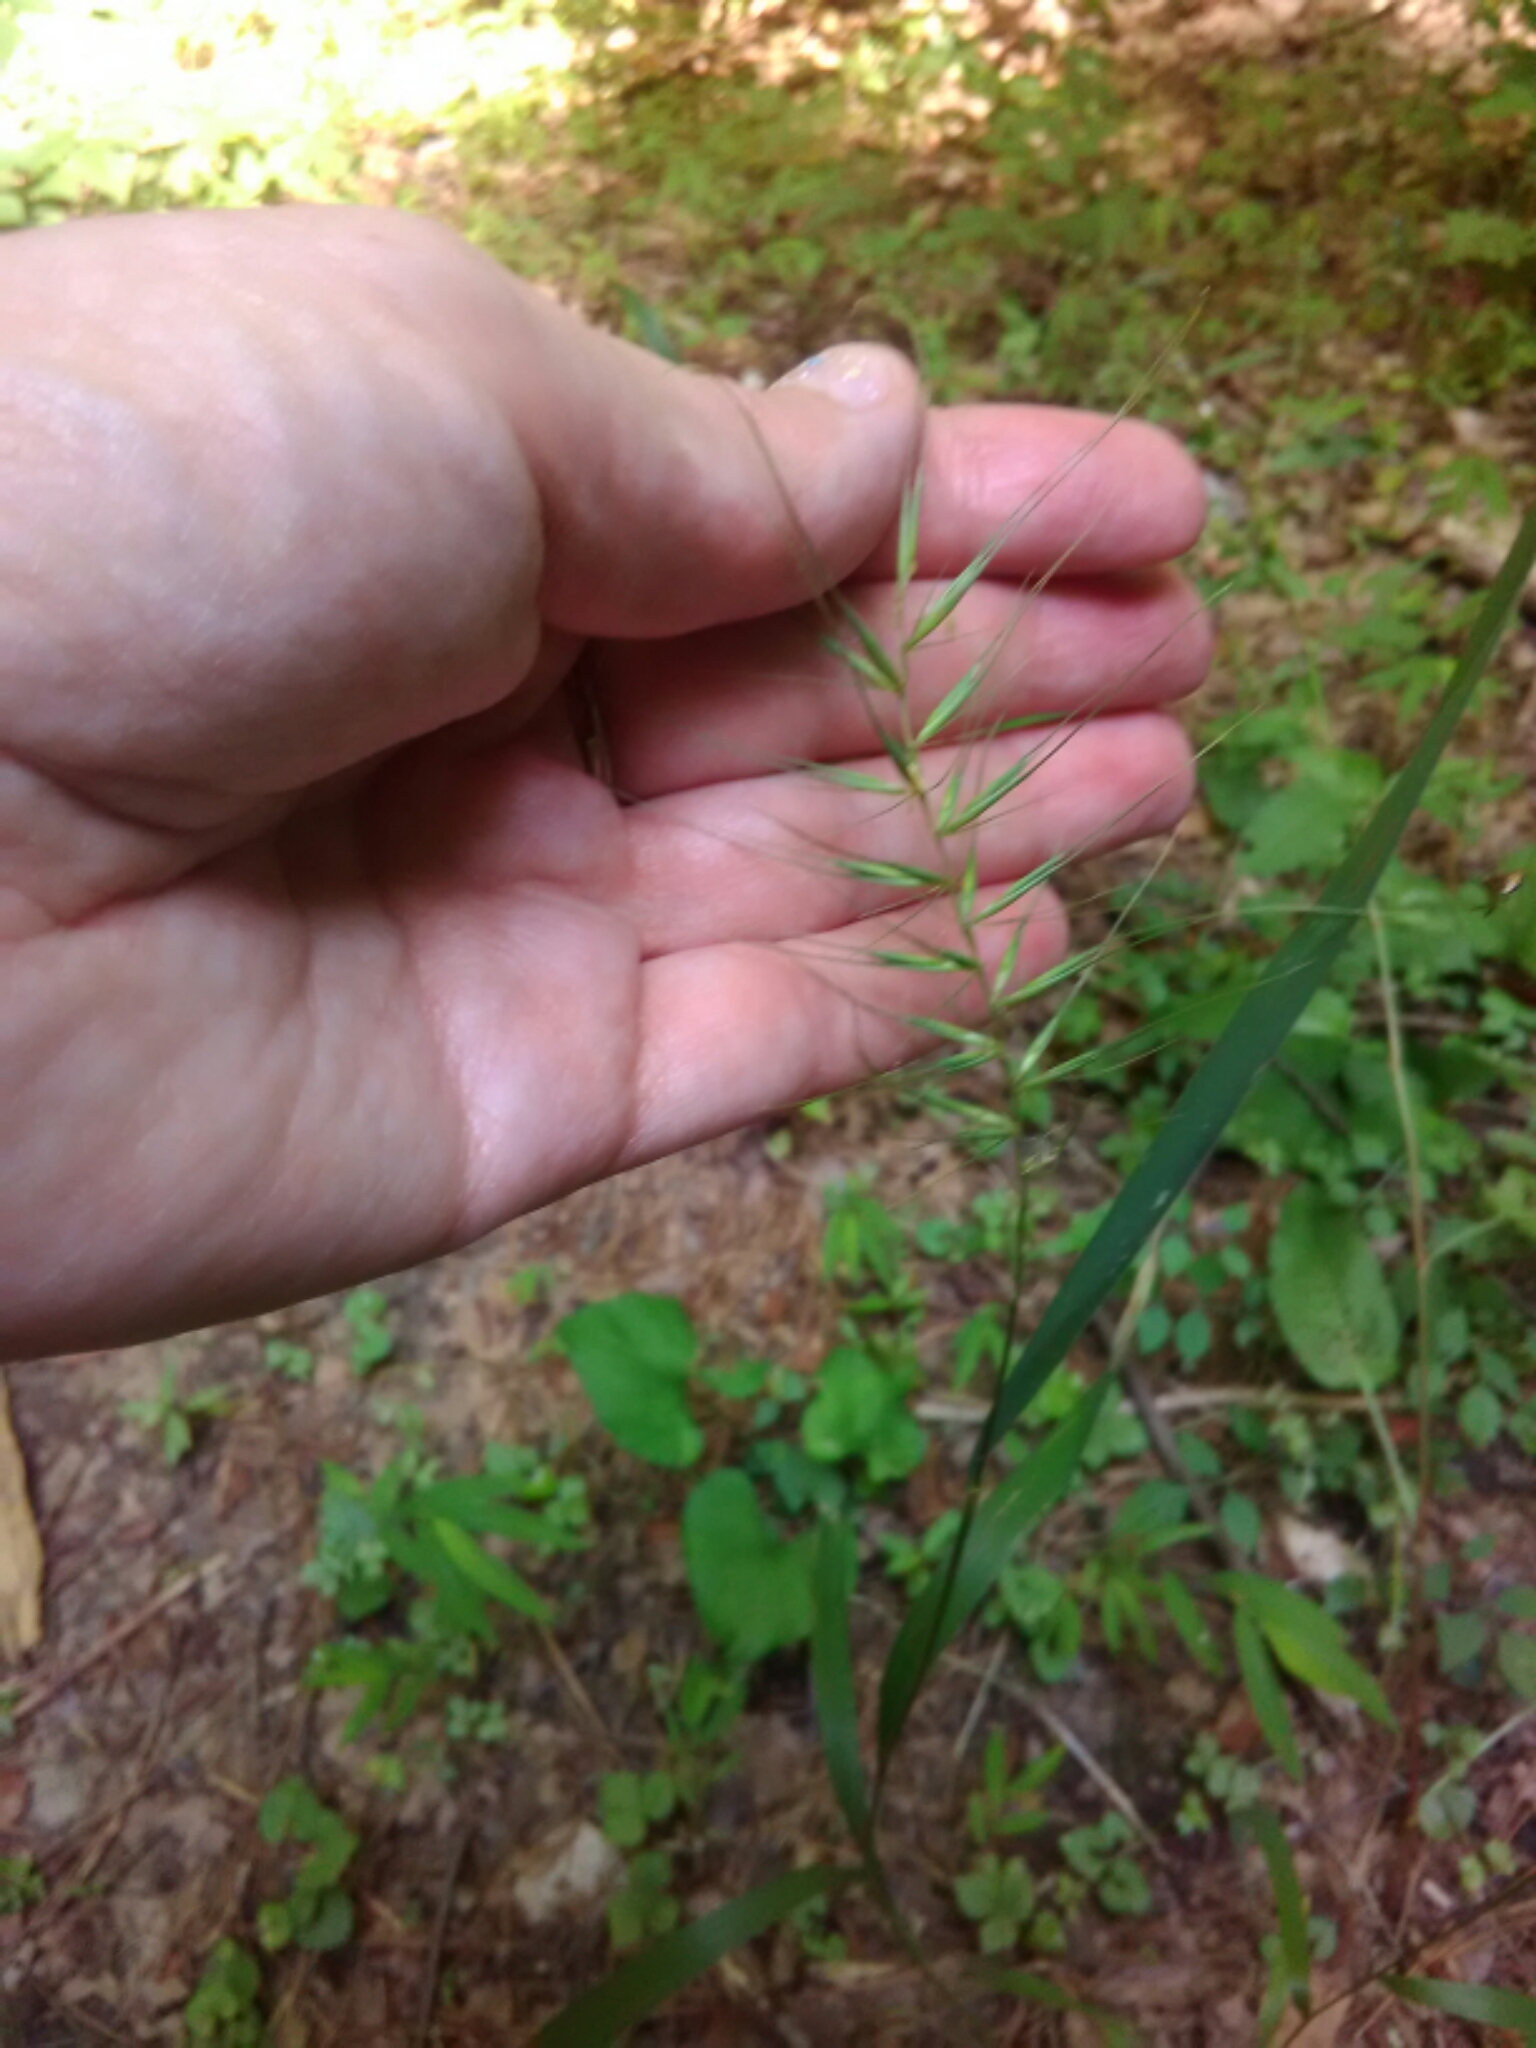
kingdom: Plantae
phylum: Tracheophyta
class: Liliopsida
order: Poales
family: Poaceae
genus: Elymus
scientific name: Elymus hystrix
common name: Bottlebrush grass
